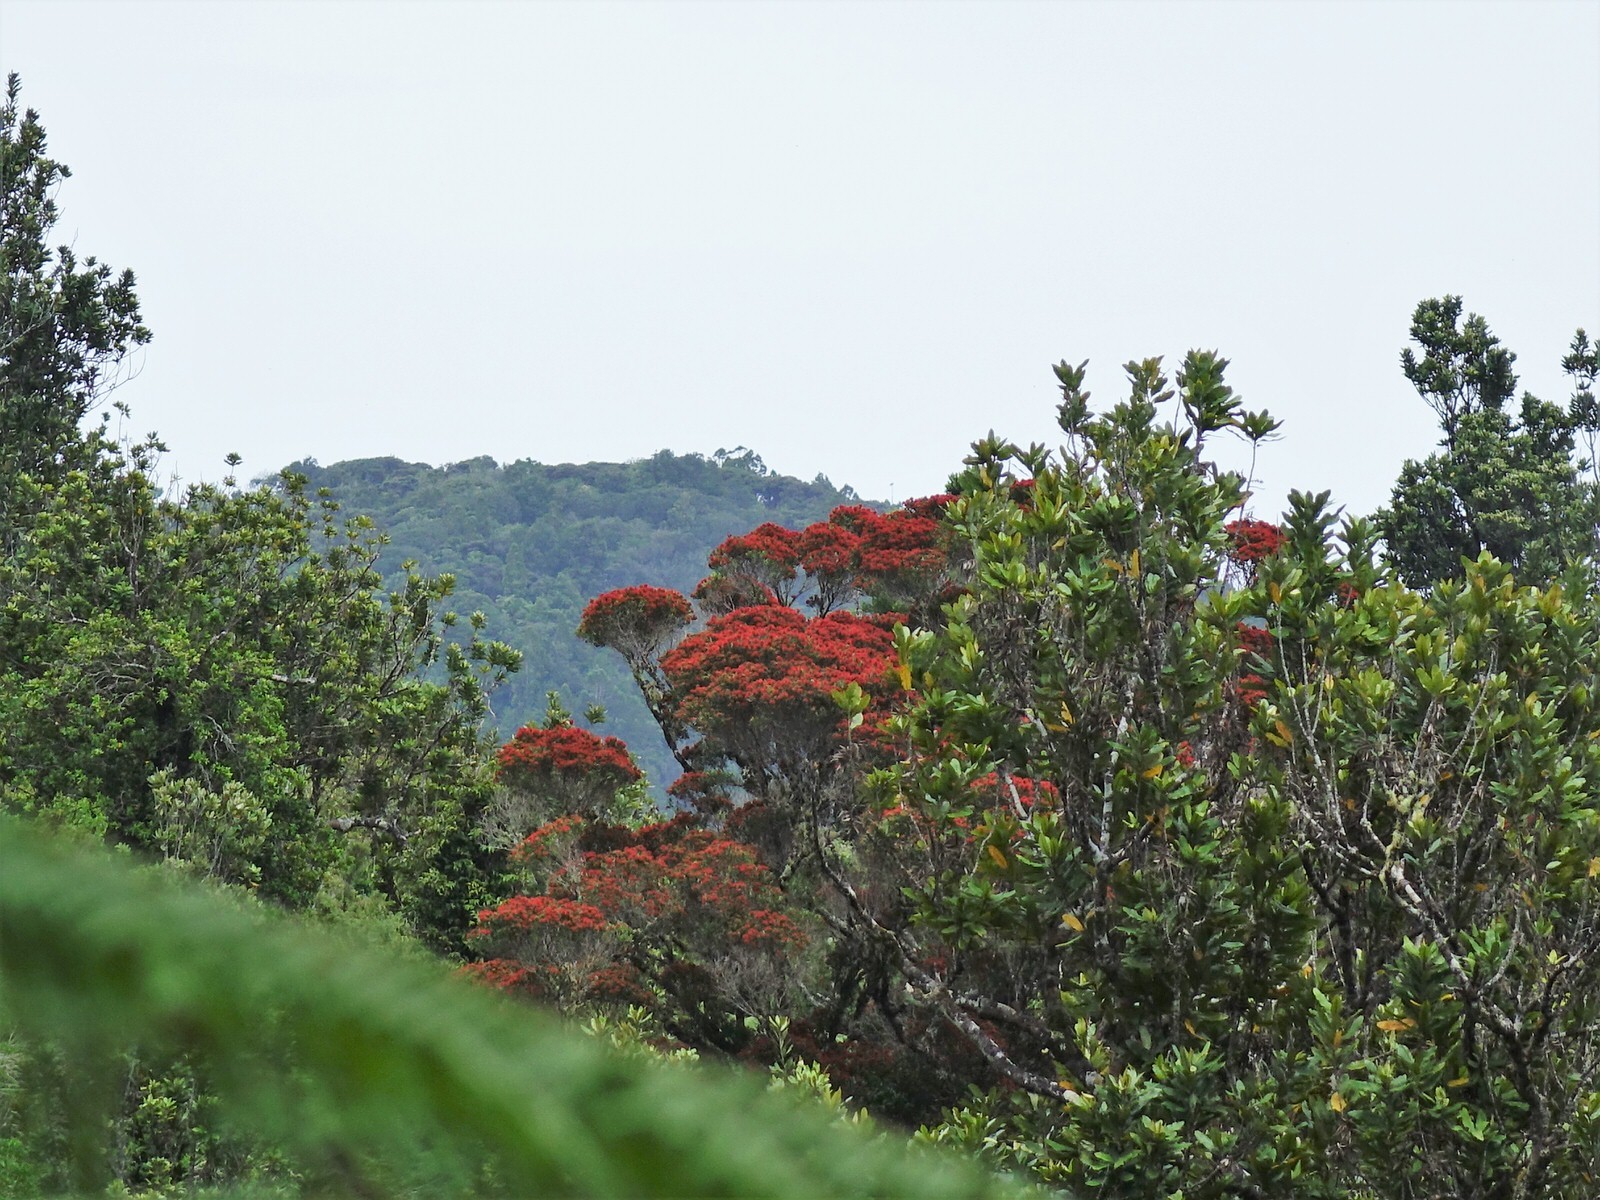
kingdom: Plantae
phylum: Tracheophyta
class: Magnoliopsida
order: Myrtales
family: Myrtaceae
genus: Metrosideros
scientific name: Metrosideros robusta
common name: Northern rata
